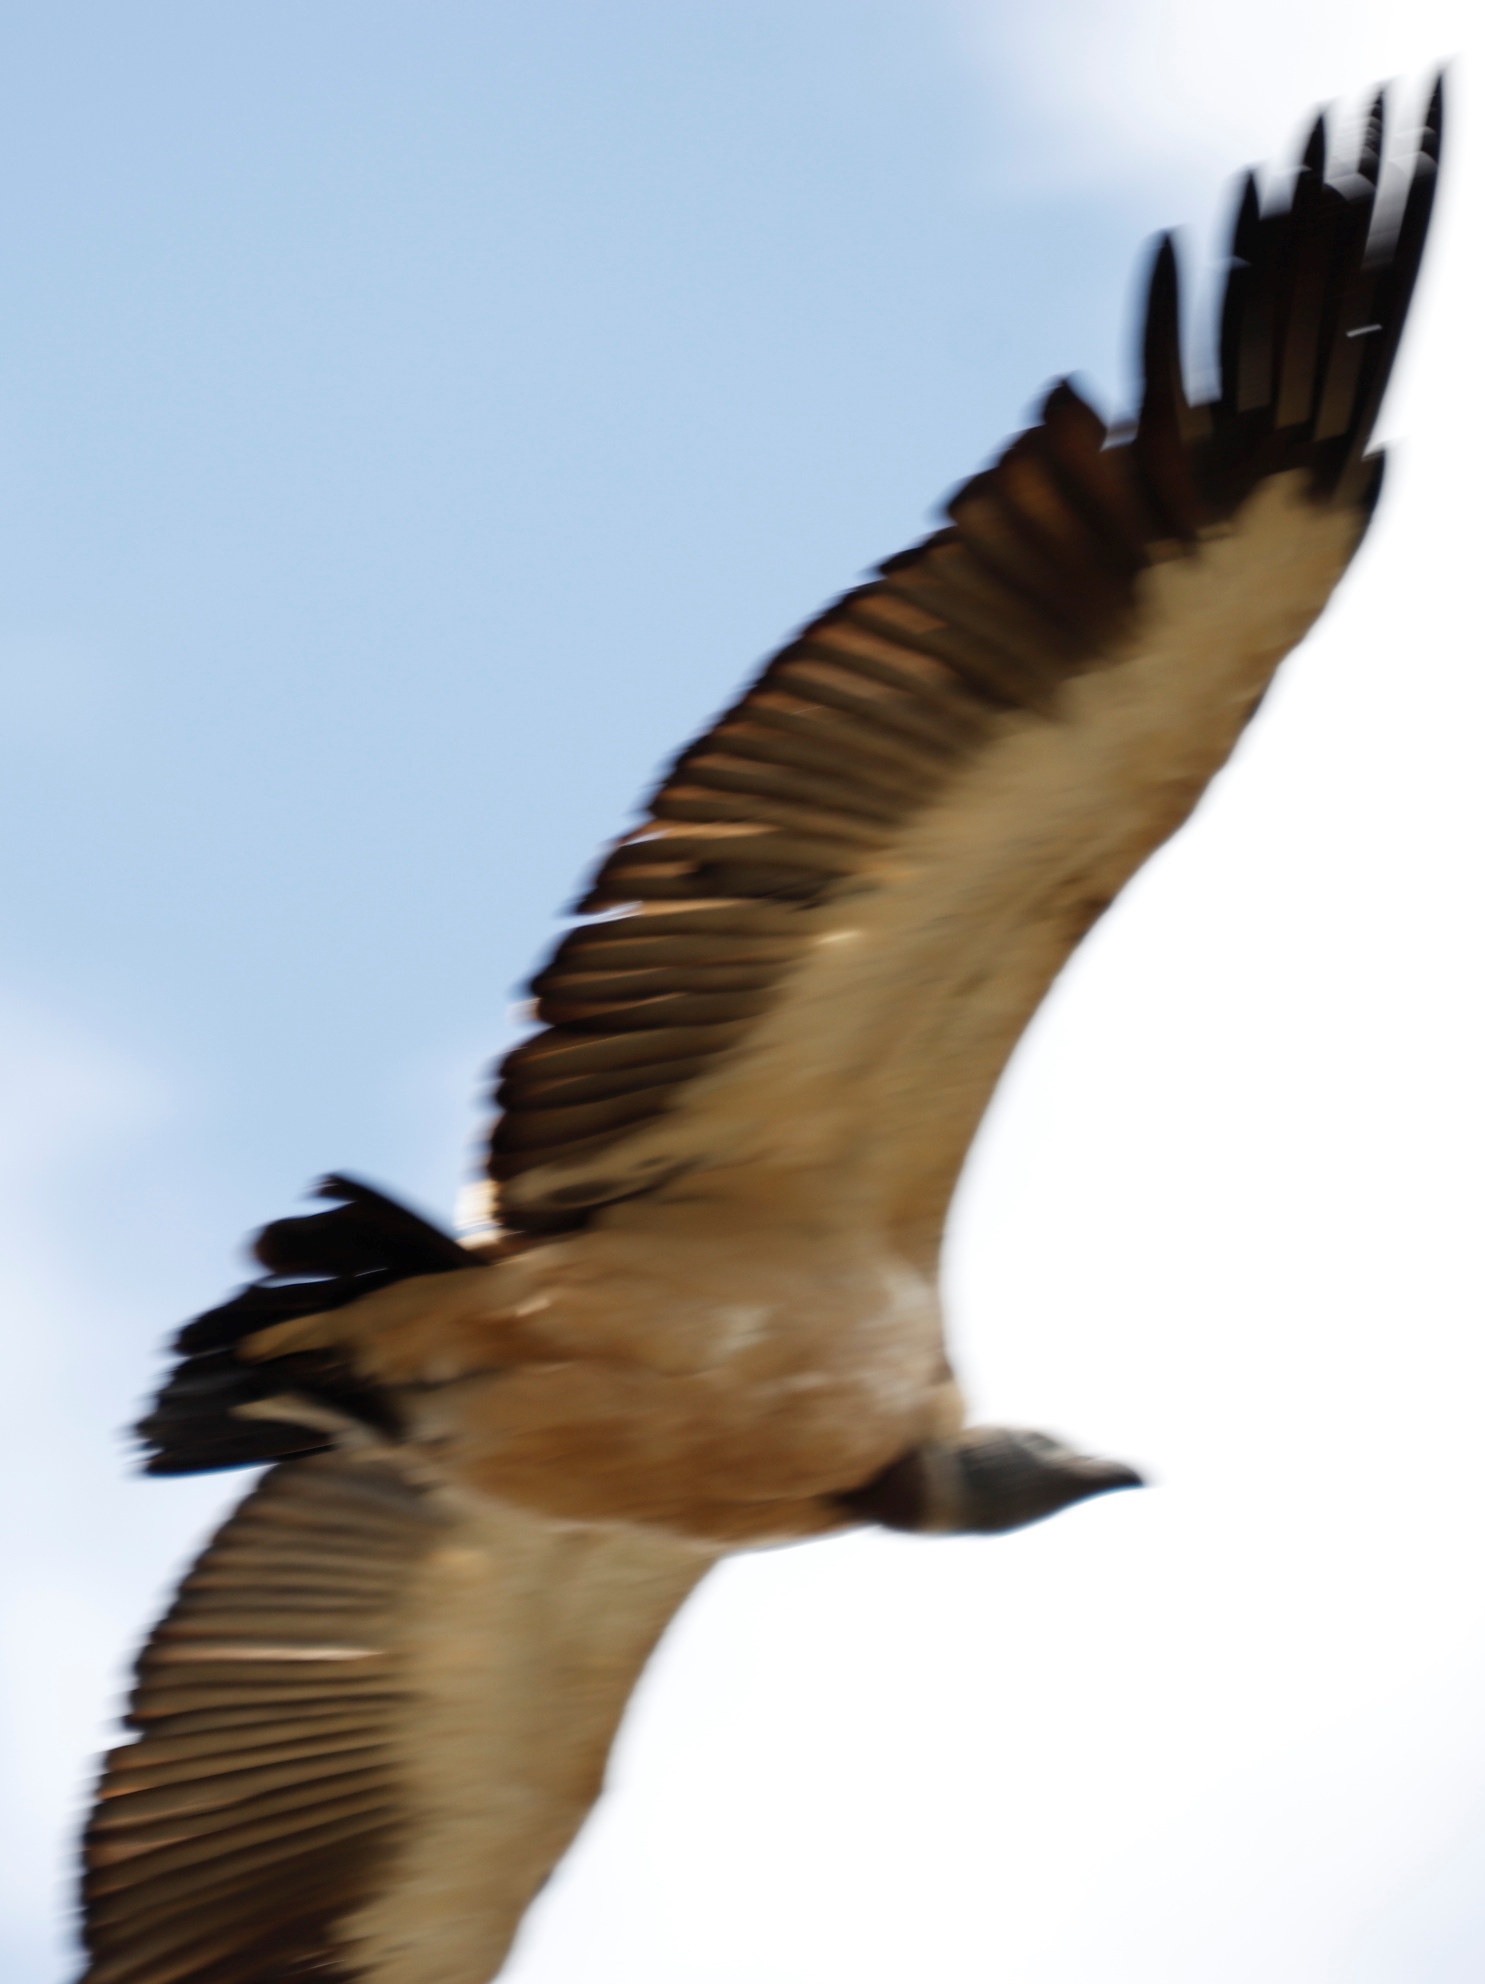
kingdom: Animalia
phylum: Chordata
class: Aves
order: Accipitriformes
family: Accipitridae
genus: Gyps
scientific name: Gyps coprotheres
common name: Cape vulture
